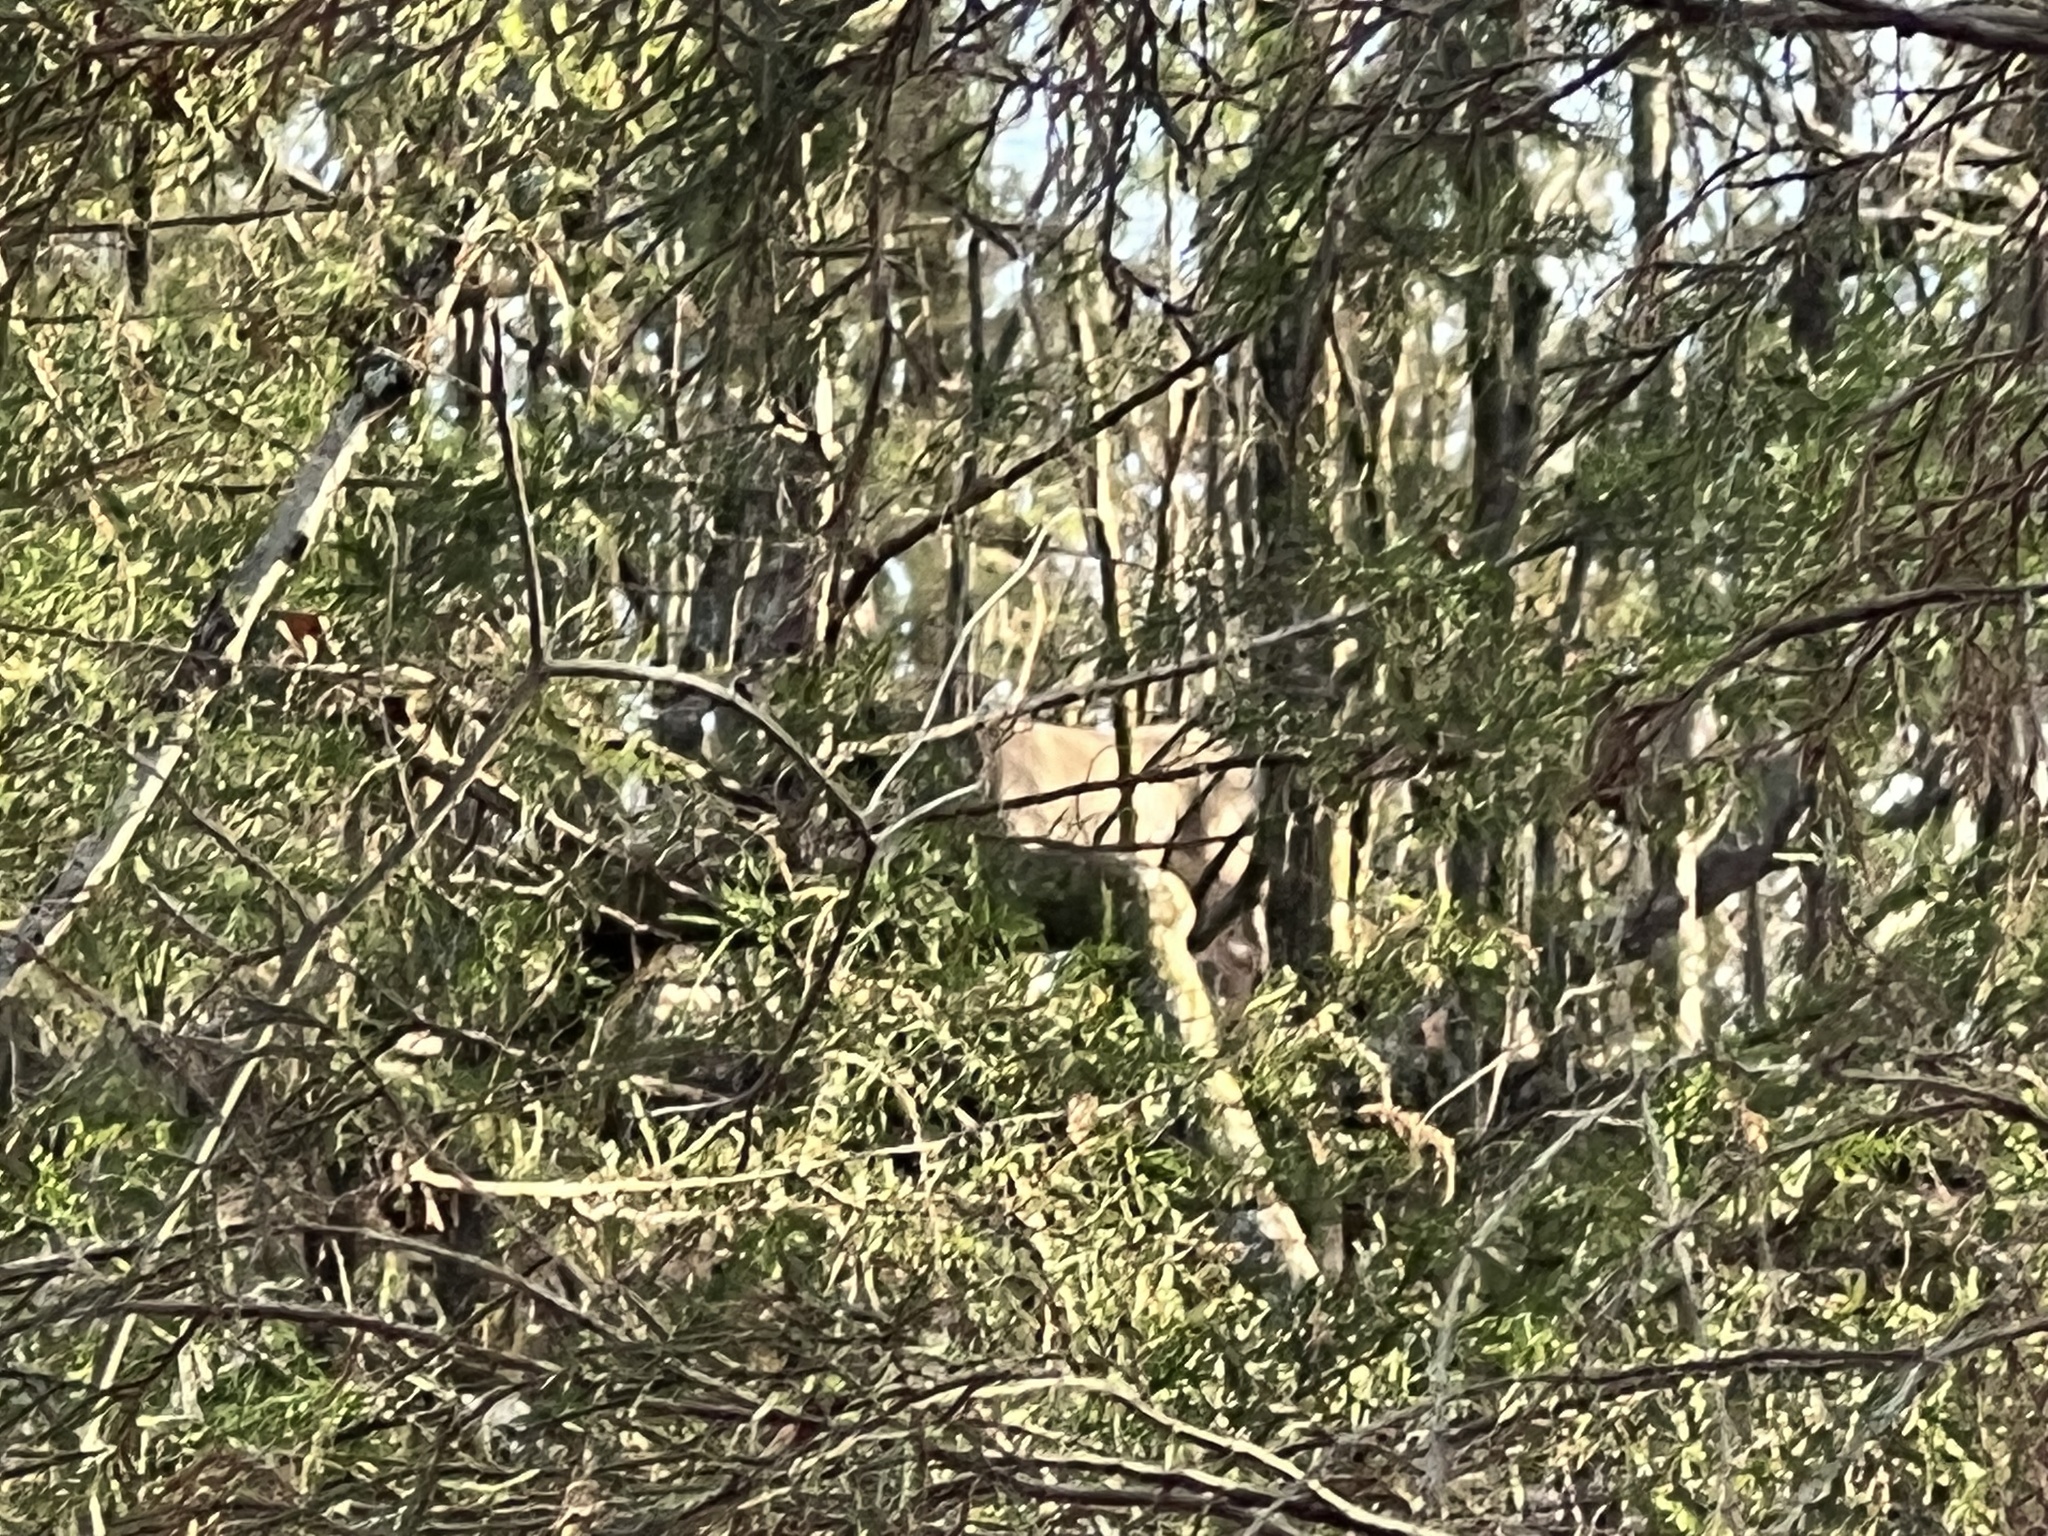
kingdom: Animalia
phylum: Chordata
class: Mammalia
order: Artiodactyla
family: Cervidae
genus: Odocoileus
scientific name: Odocoileus virginianus
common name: White-tailed deer
